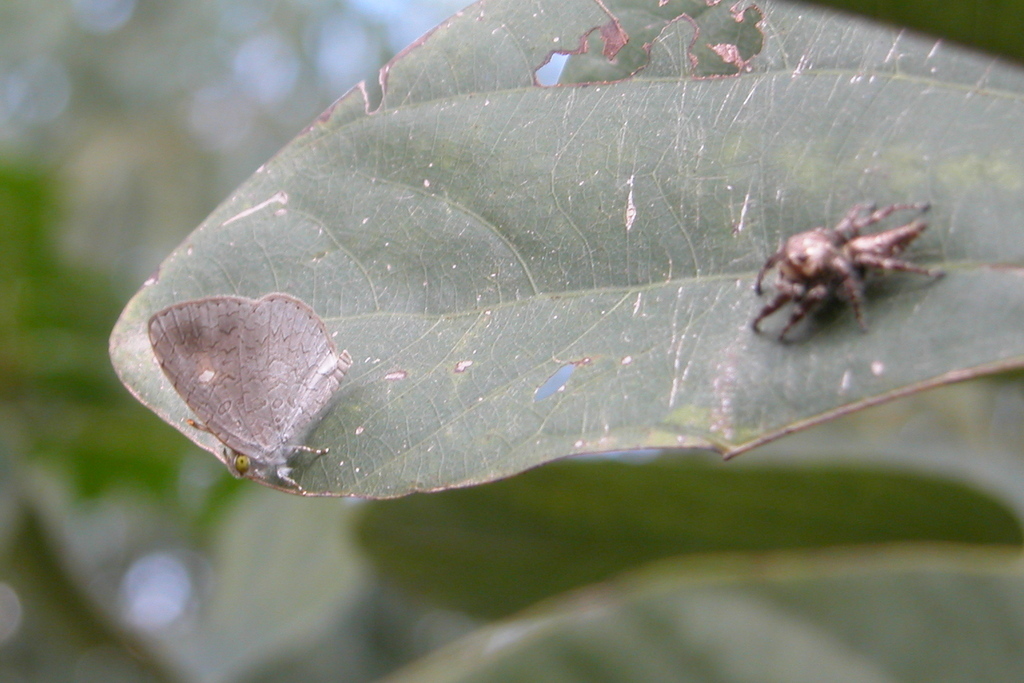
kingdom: Animalia
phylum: Arthropoda
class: Arachnida
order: Araneae
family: Salticidae
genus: Hyllus
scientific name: Hyllus semicupreus
